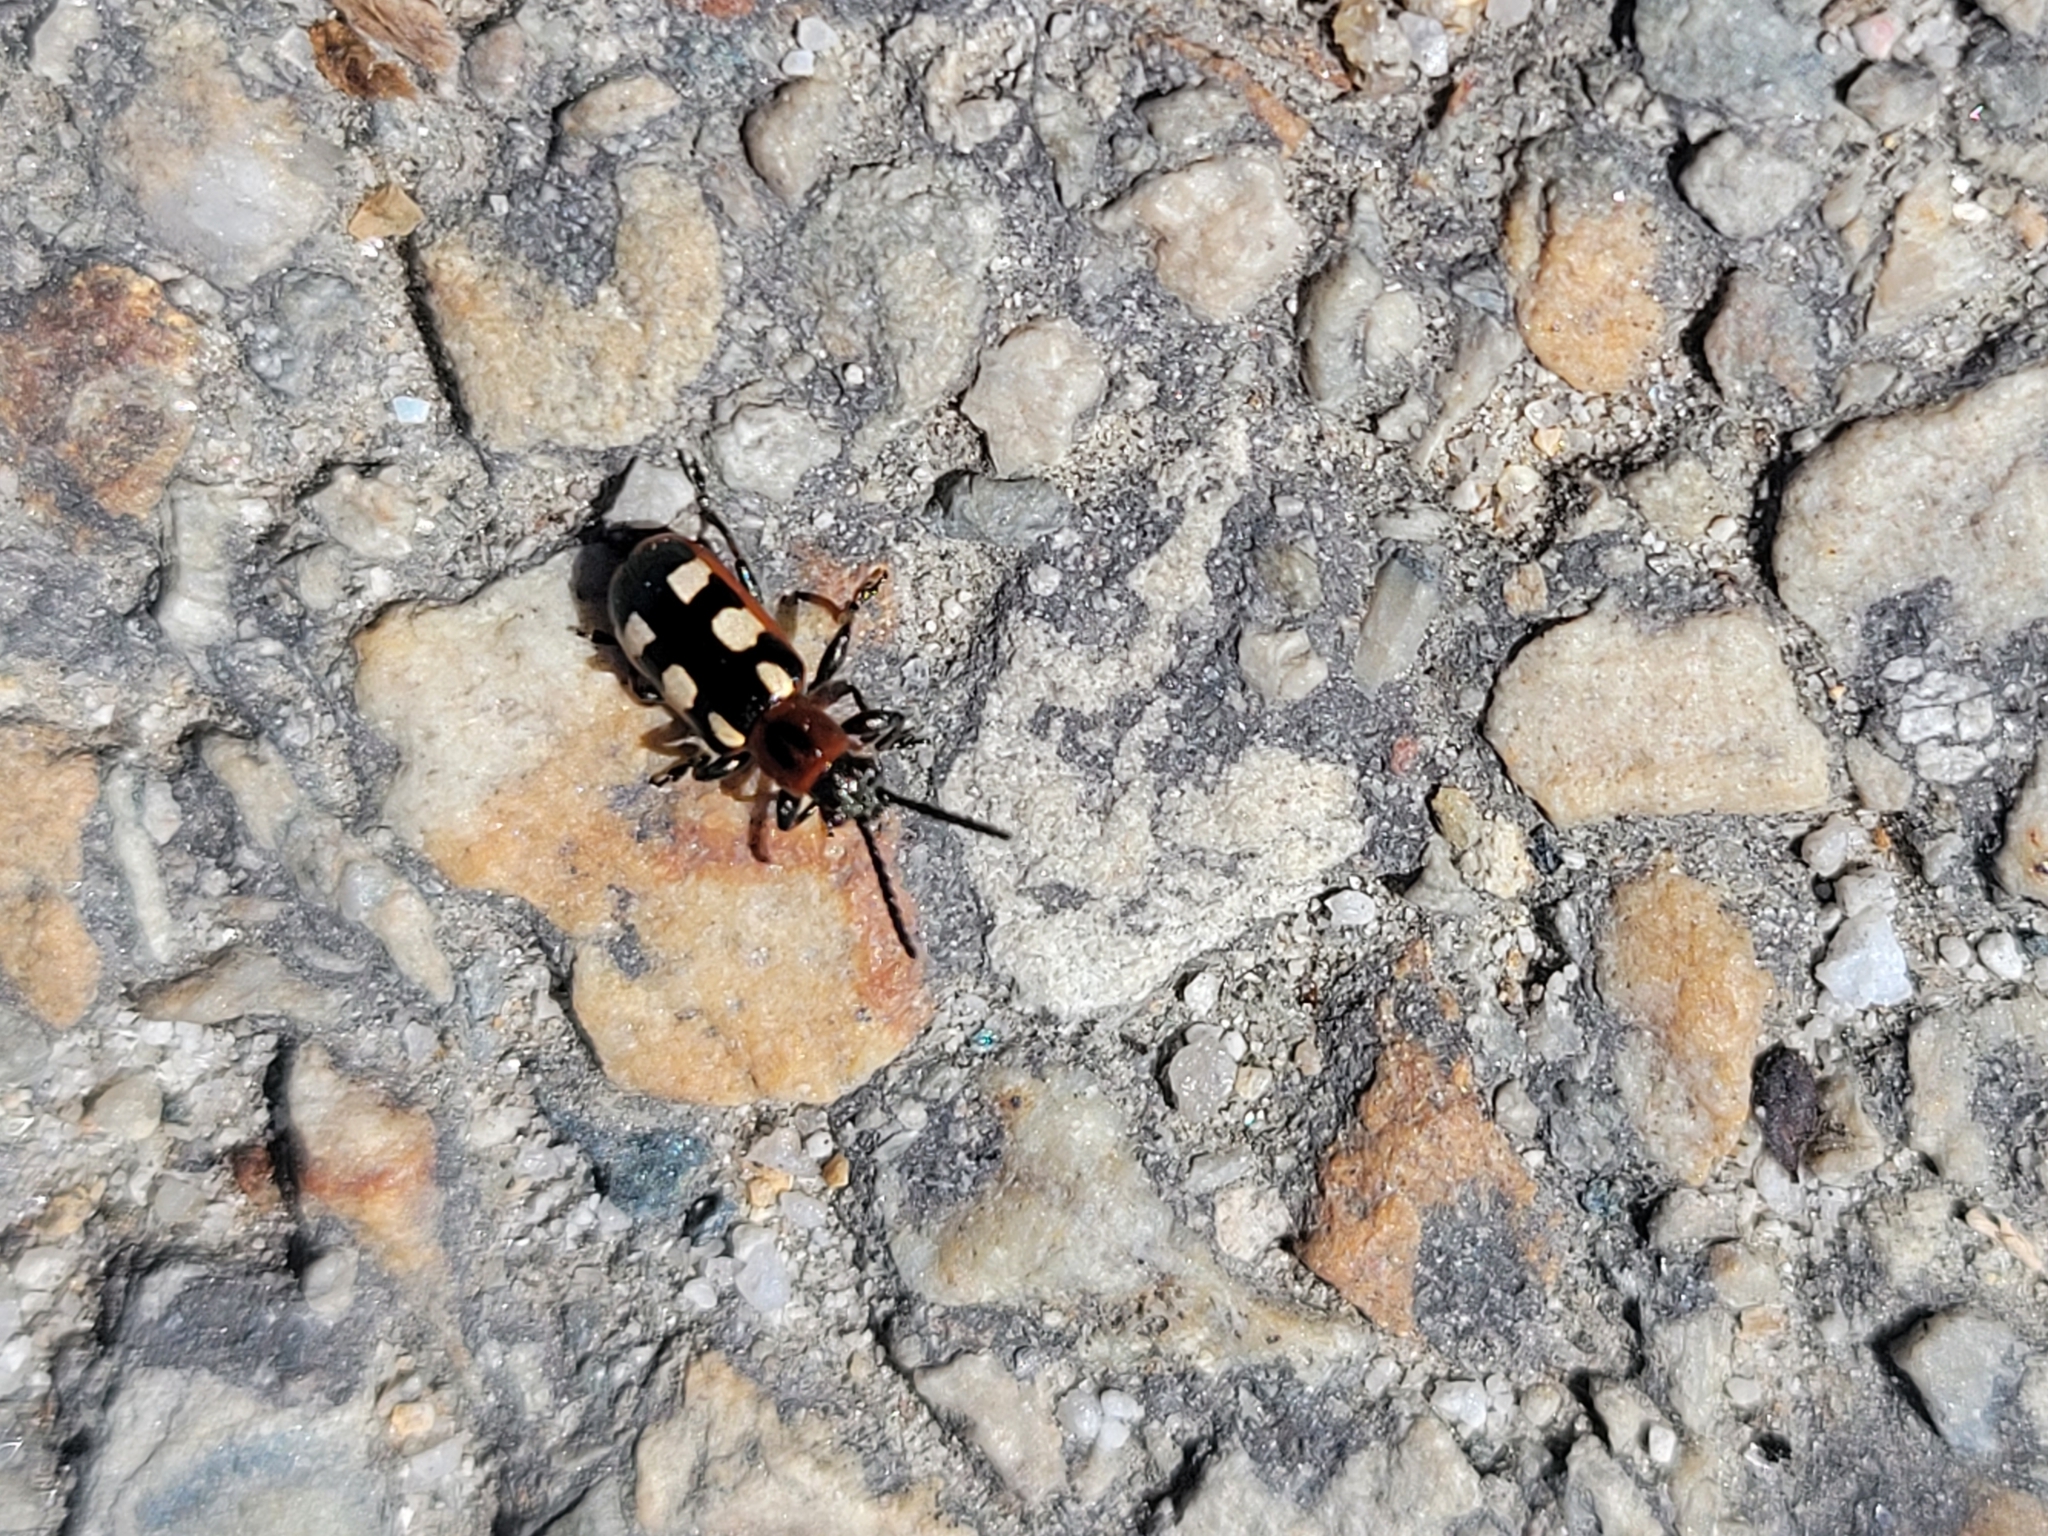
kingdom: Animalia
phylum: Arthropoda
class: Insecta
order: Coleoptera
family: Chrysomelidae
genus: Crioceris
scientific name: Crioceris asparagi
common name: Asparagus beetle
